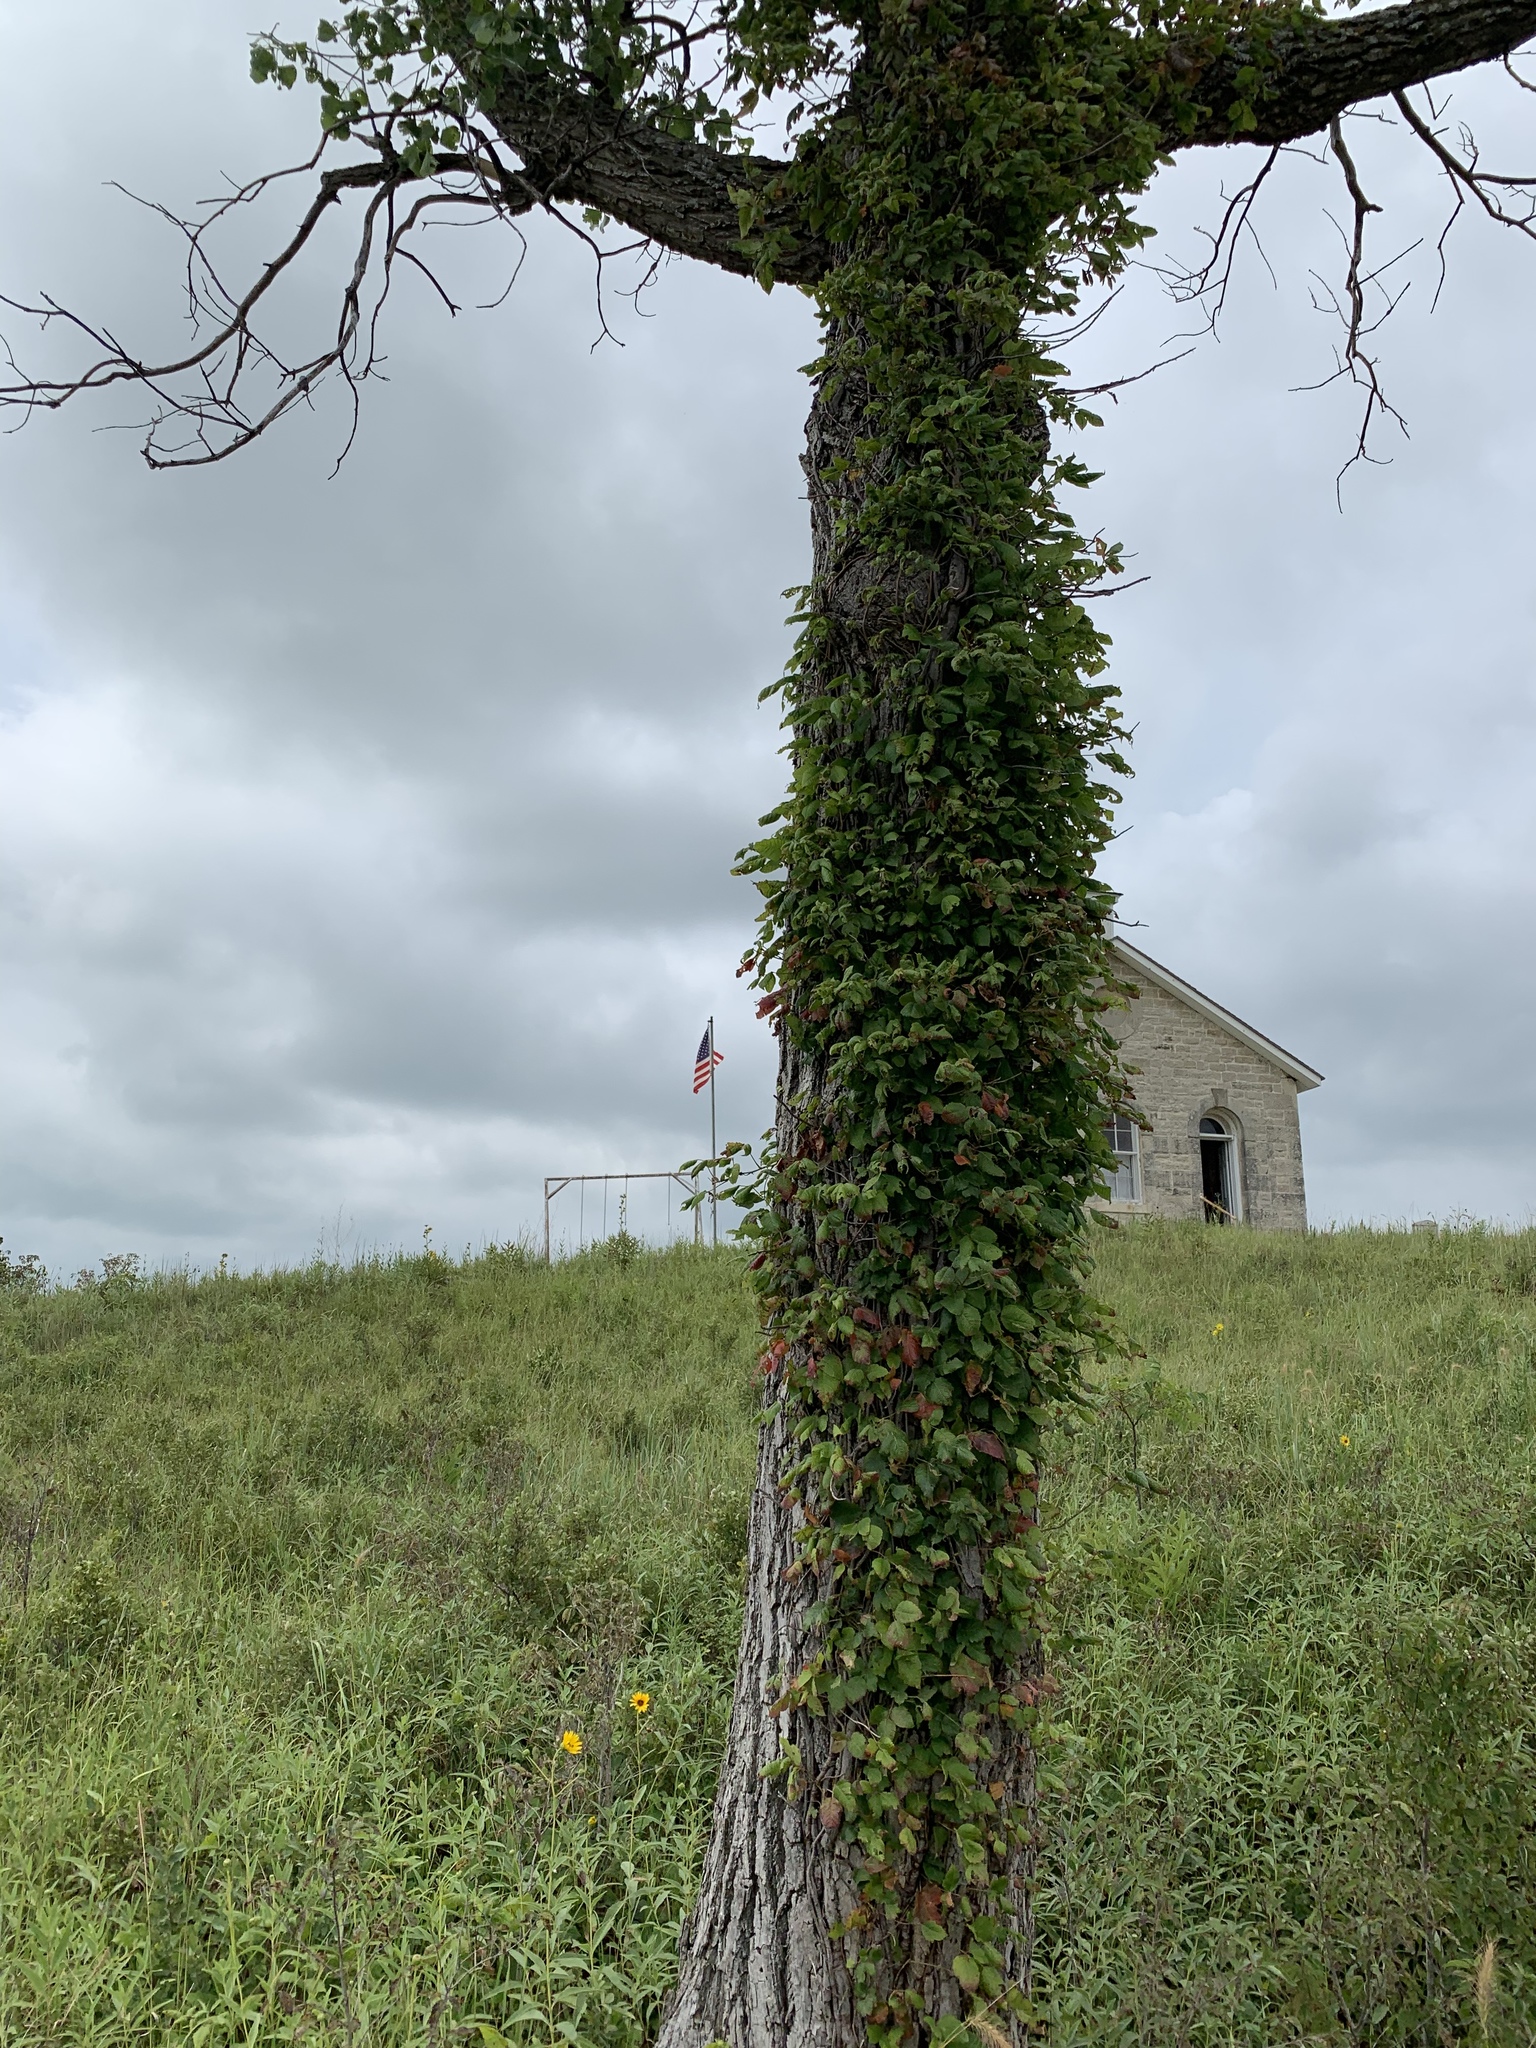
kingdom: Plantae
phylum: Tracheophyta
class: Magnoliopsida
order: Sapindales
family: Anacardiaceae
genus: Toxicodendron
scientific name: Toxicodendron radicans
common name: Poison ivy
